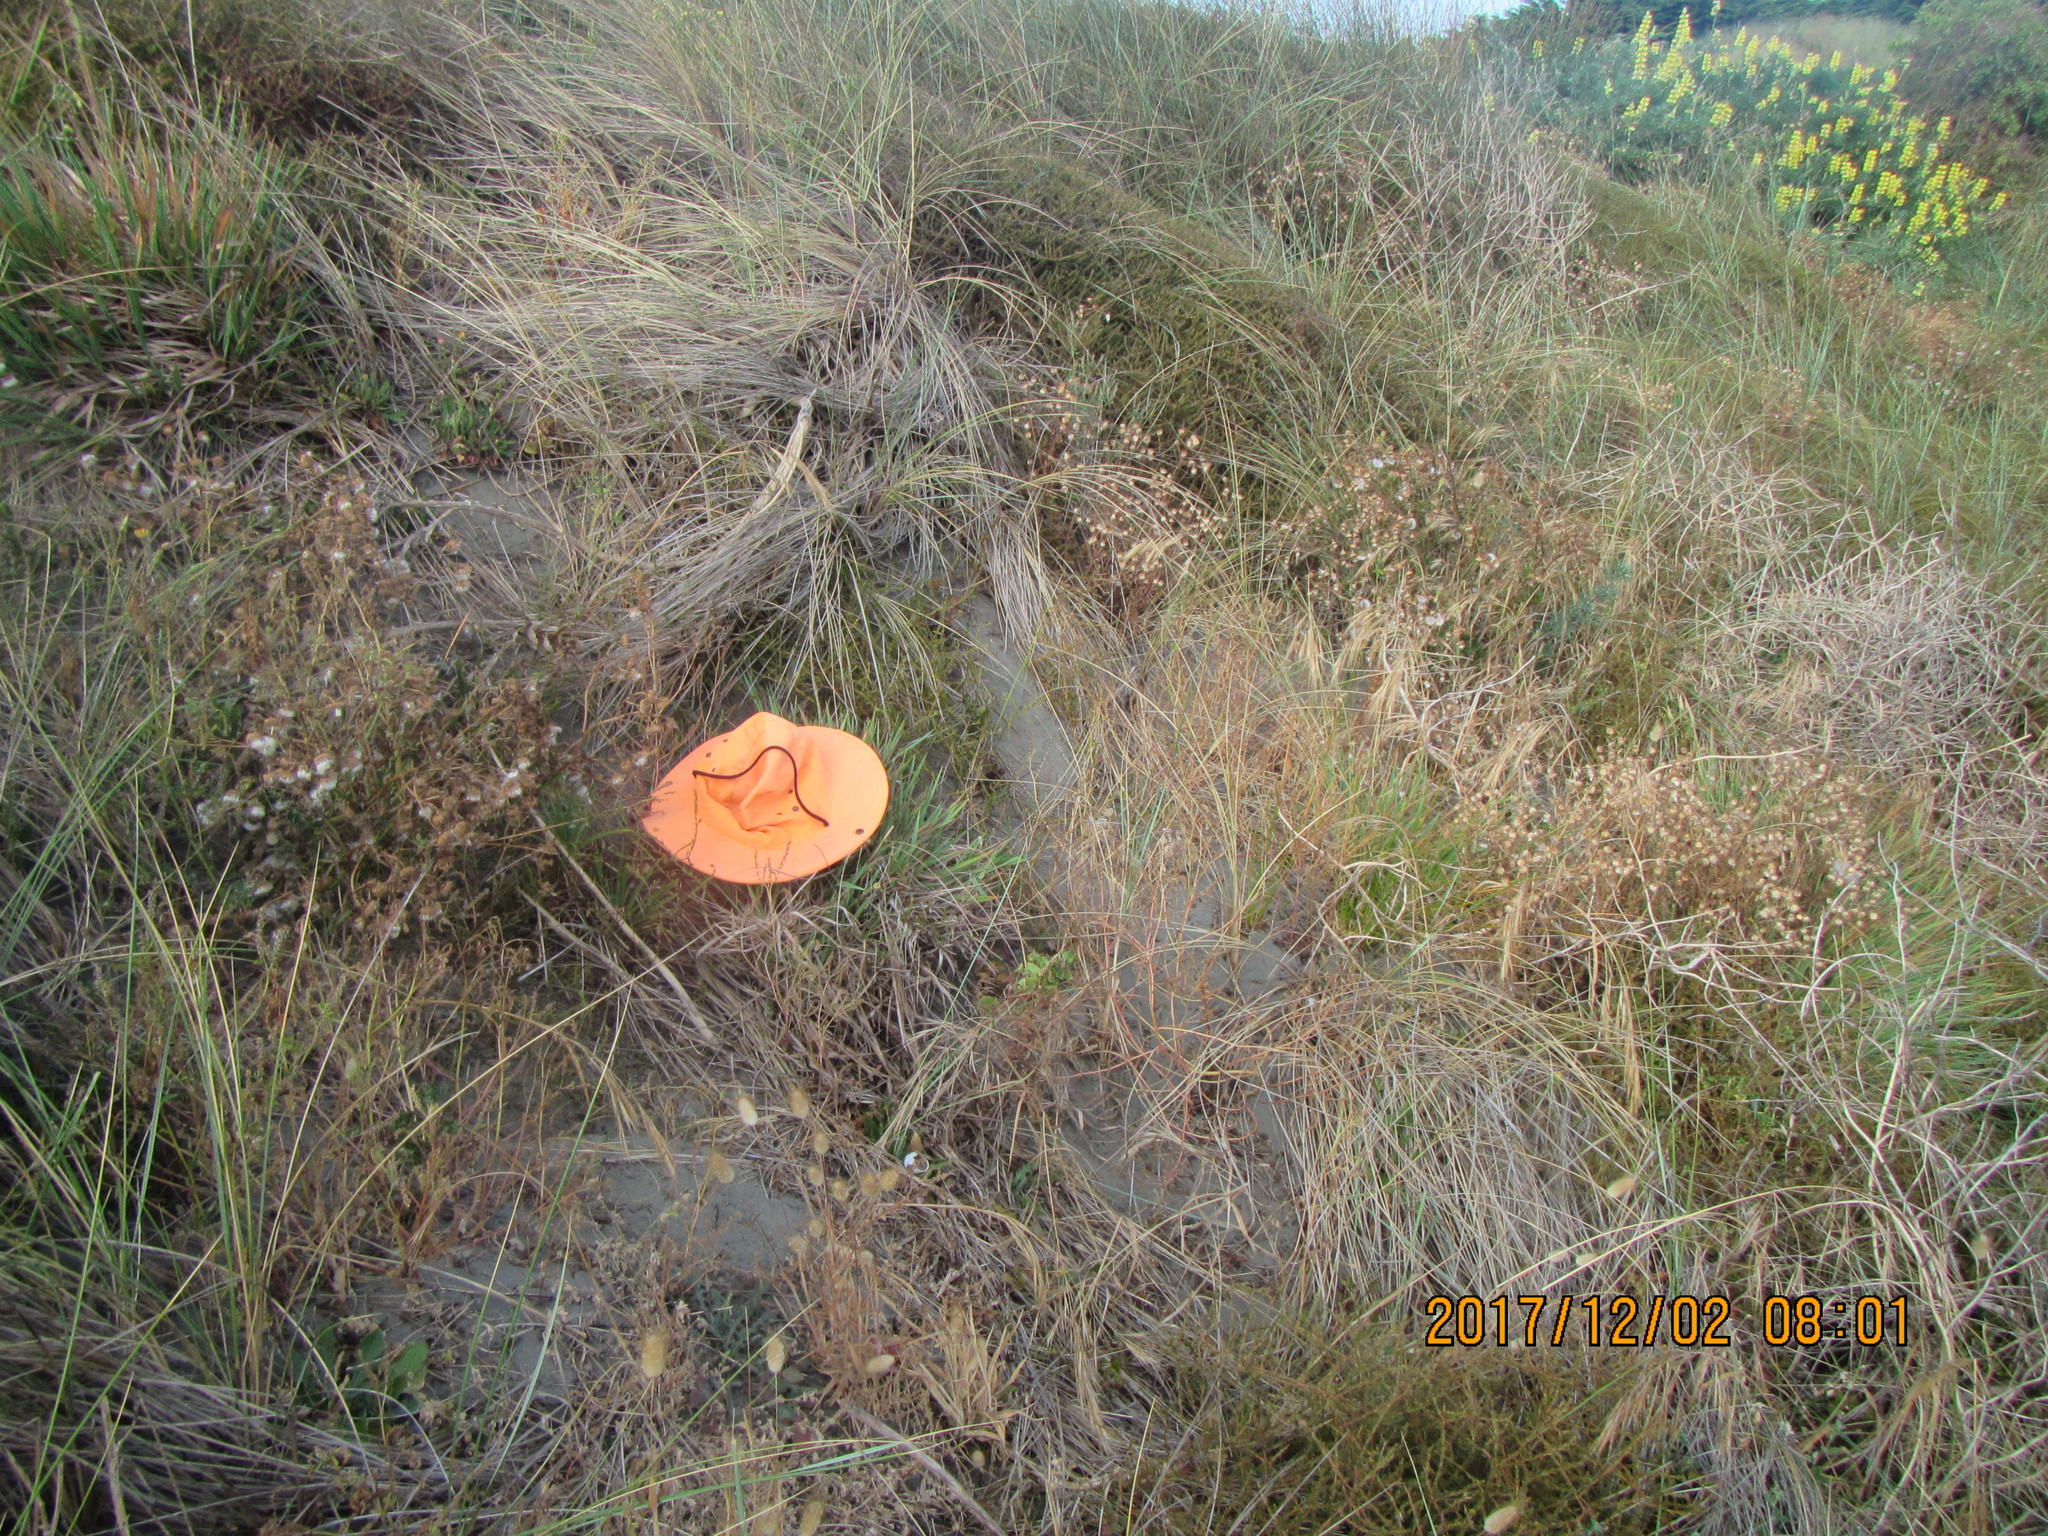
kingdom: Animalia
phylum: Arthropoda
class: Arachnida
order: Araneae
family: Theridiidae
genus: Latrodectus
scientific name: Latrodectus katipo
